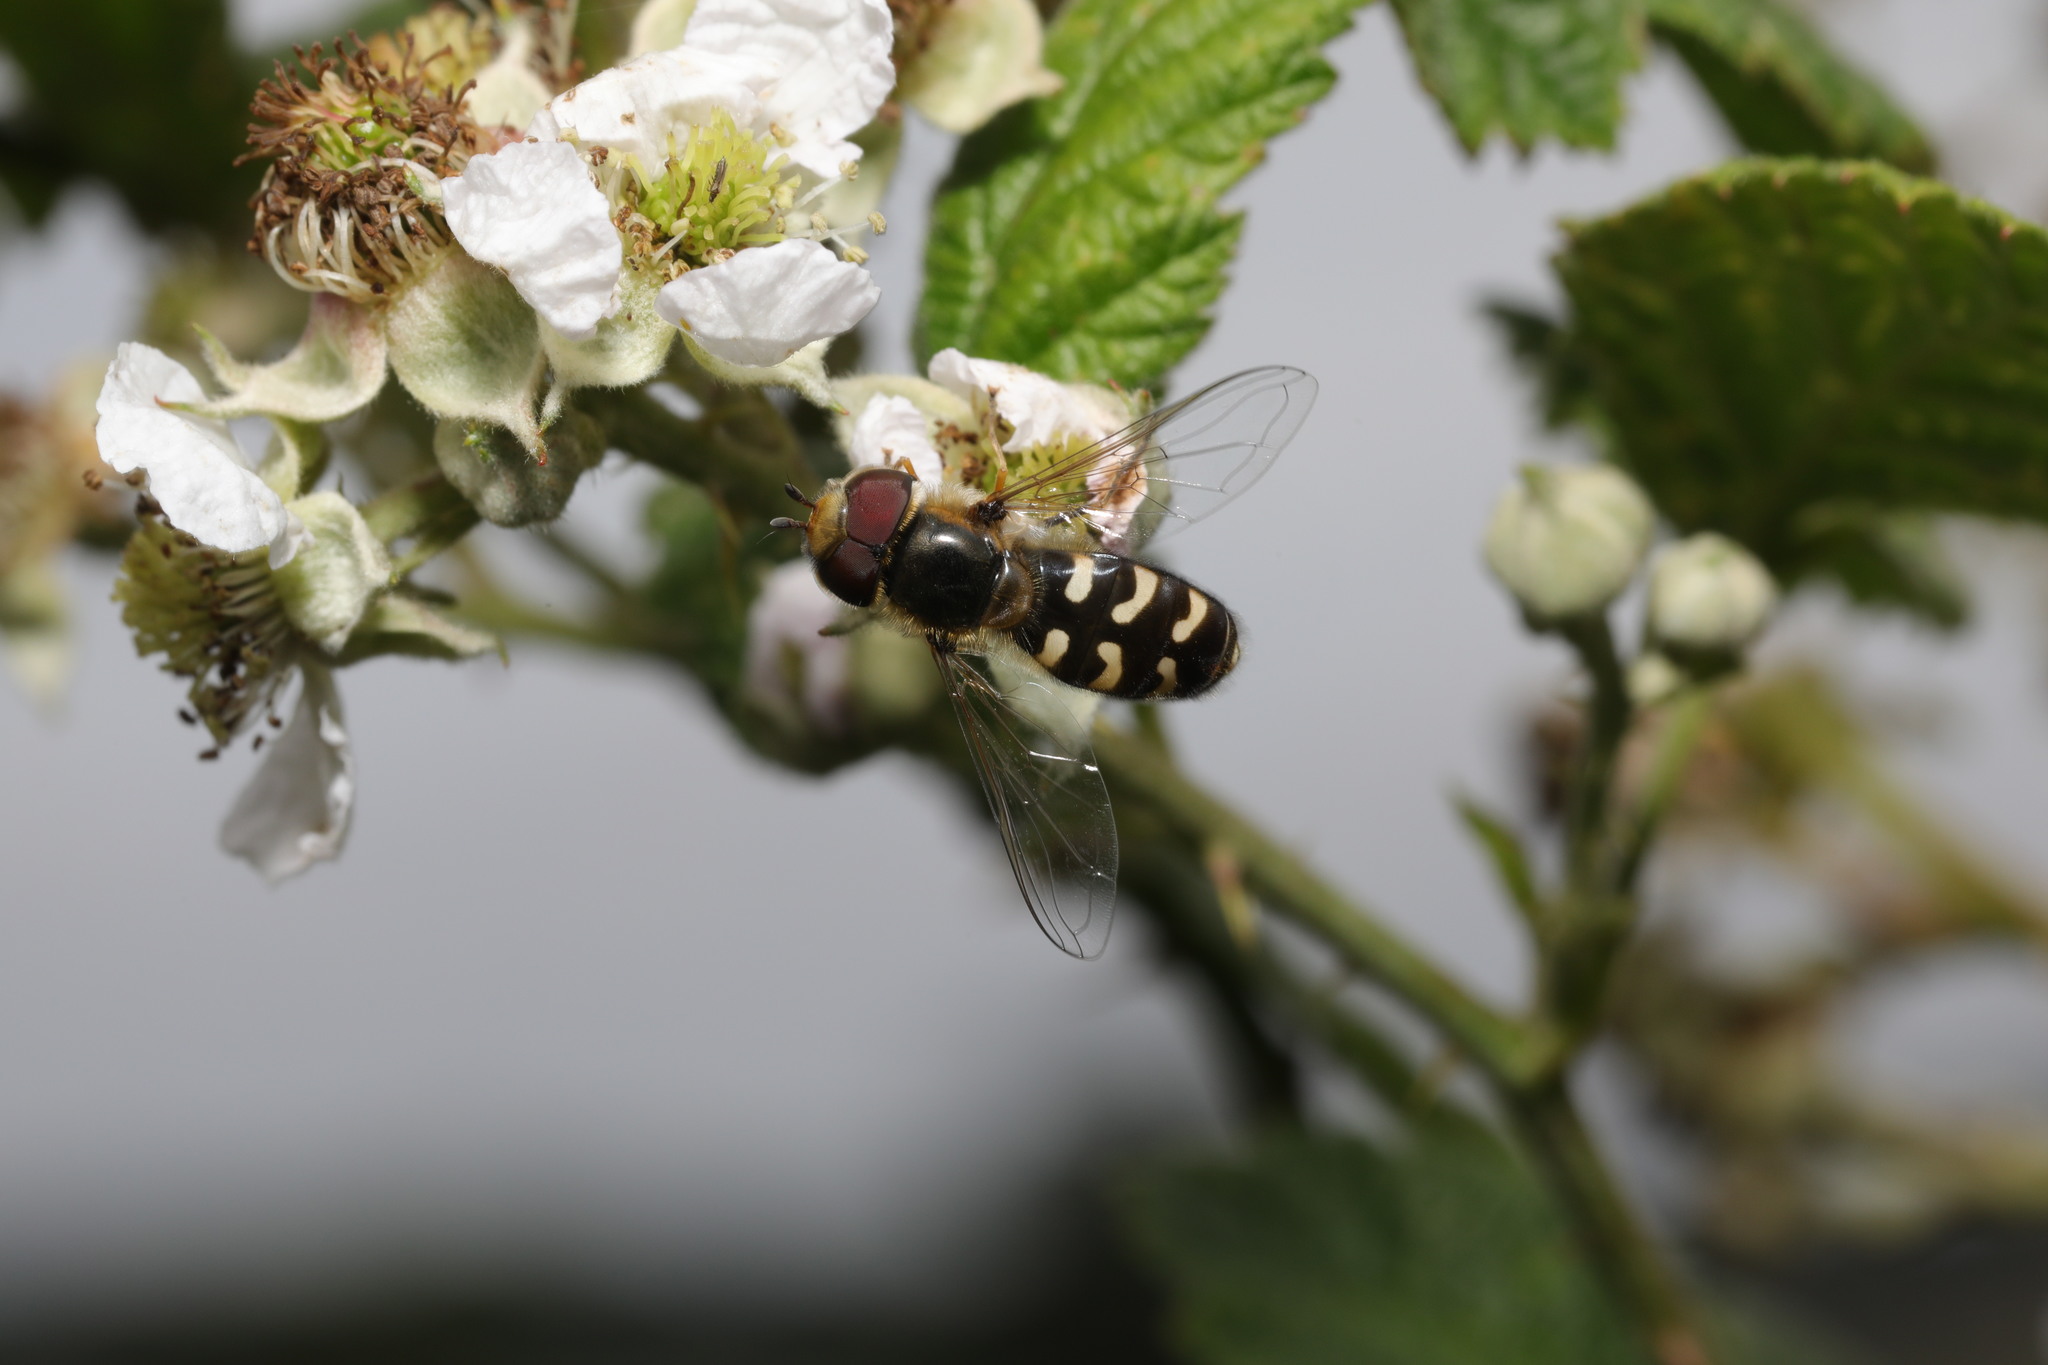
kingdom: Animalia
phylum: Arthropoda
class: Insecta
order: Diptera
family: Syrphidae
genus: Scaeva
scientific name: Scaeva pyrastri
